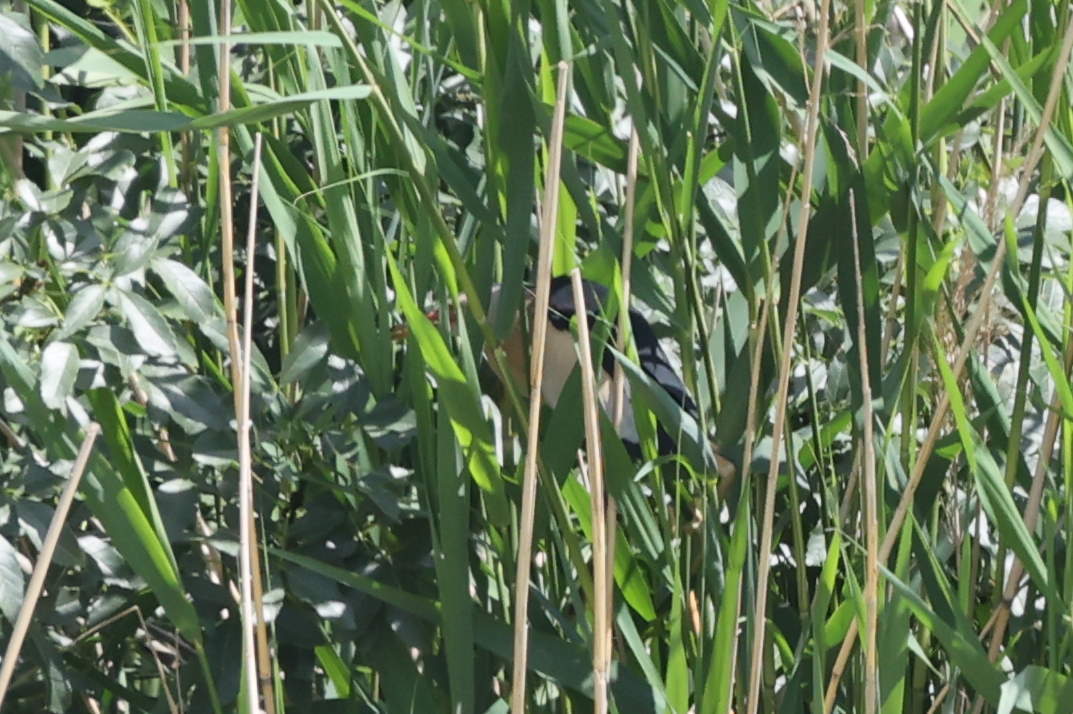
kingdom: Animalia
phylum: Chordata
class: Aves
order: Pelecaniformes
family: Ardeidae
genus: Ixobrychus
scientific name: Ixobrychus minutus
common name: Little bittern
